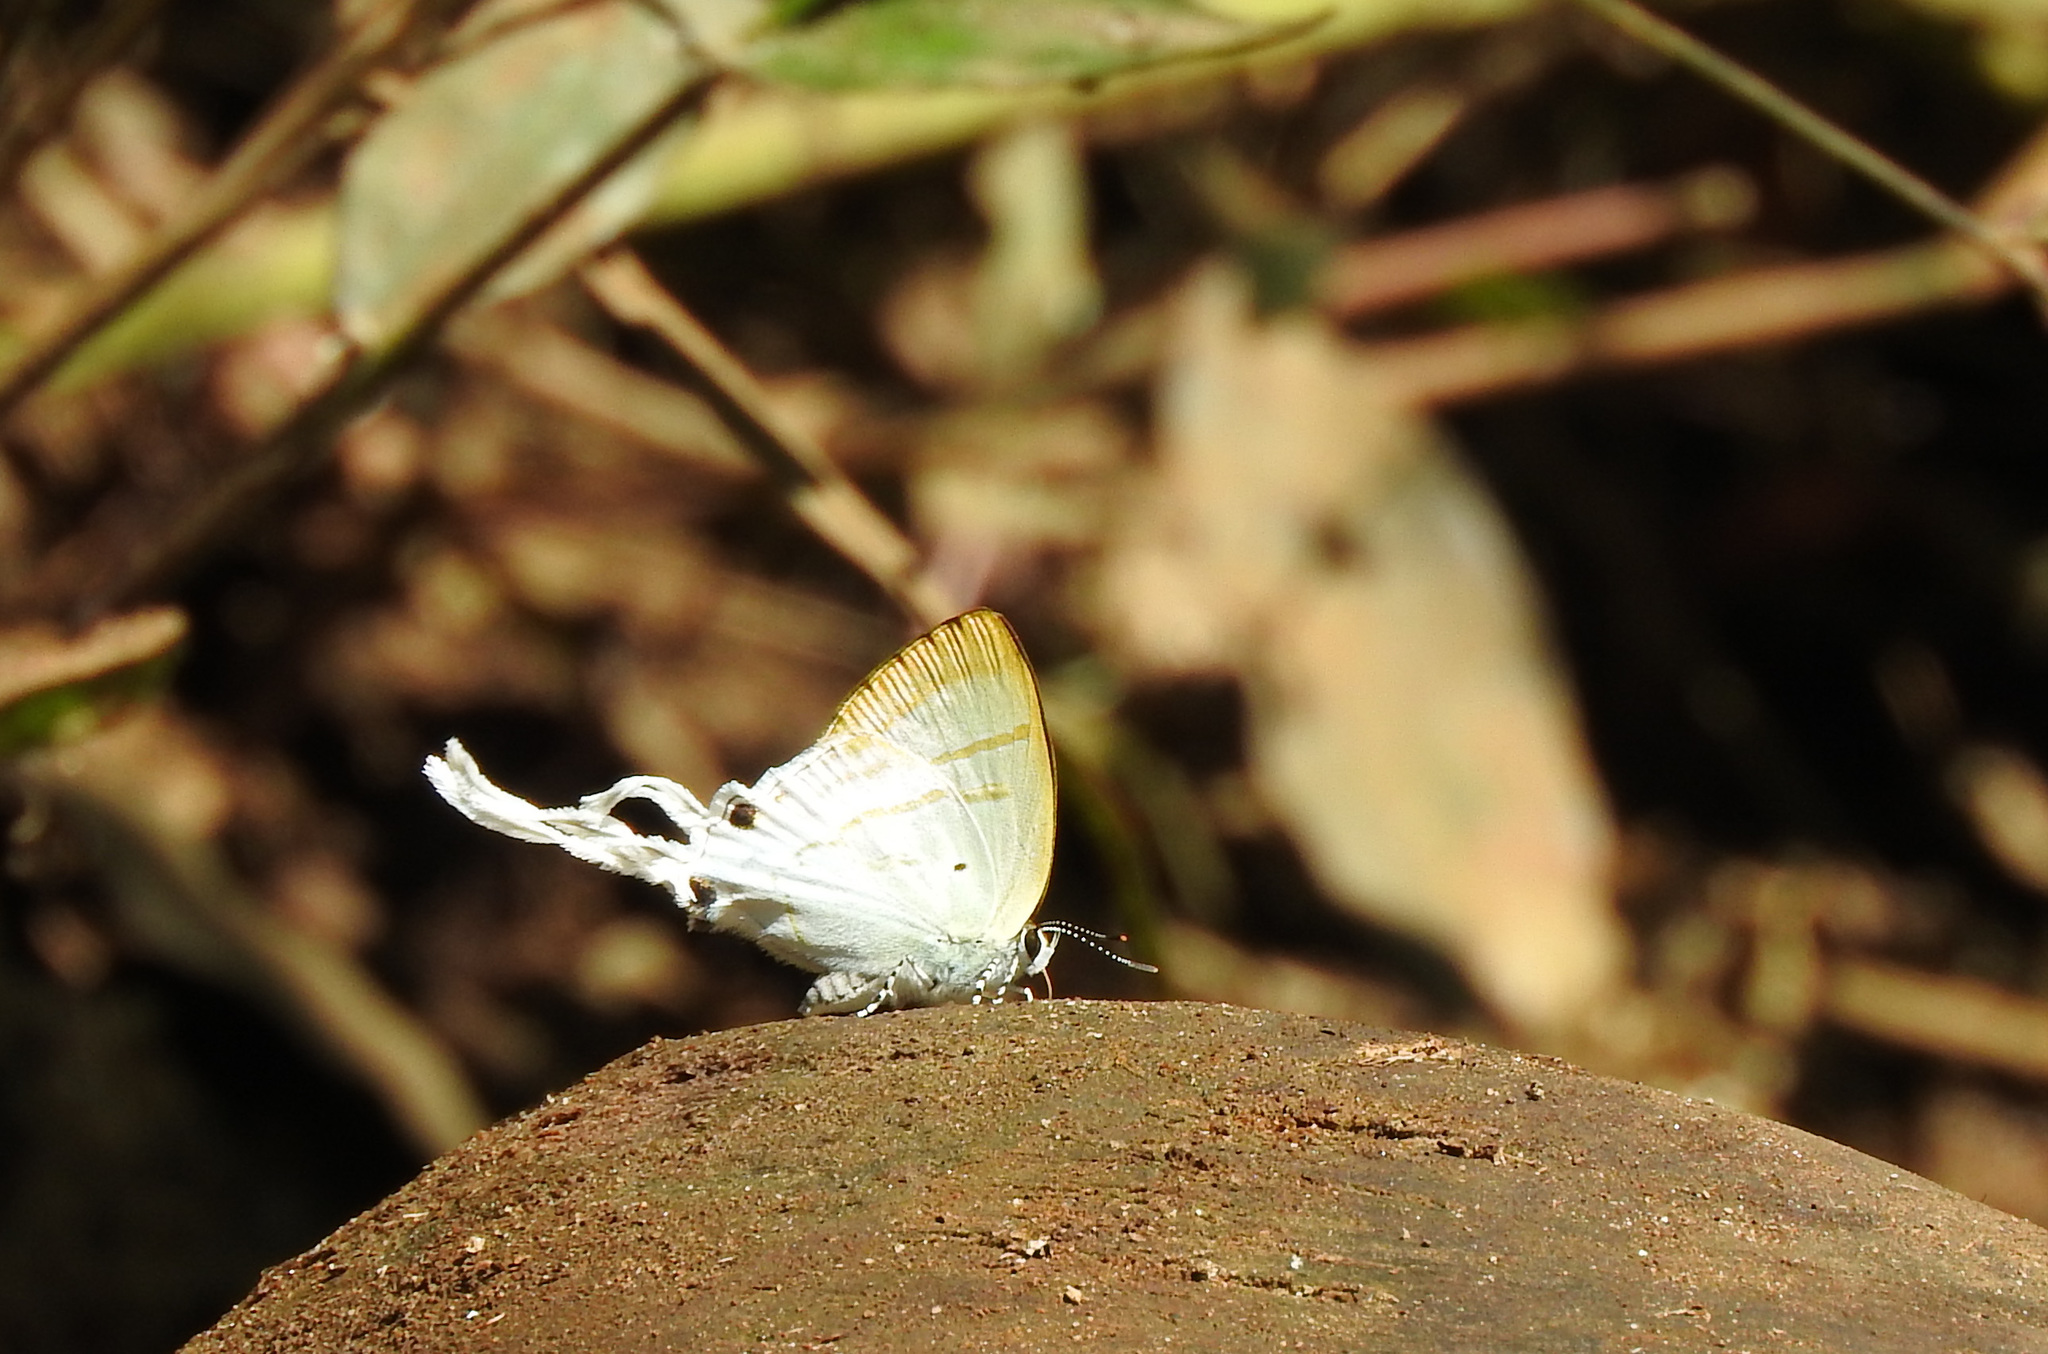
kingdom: Animalia
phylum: Arthropoda
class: Insecta
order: Lepidoptera
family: Lycaenidae
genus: Zeltus
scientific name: Zeltus amasa
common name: Fluffy tit
